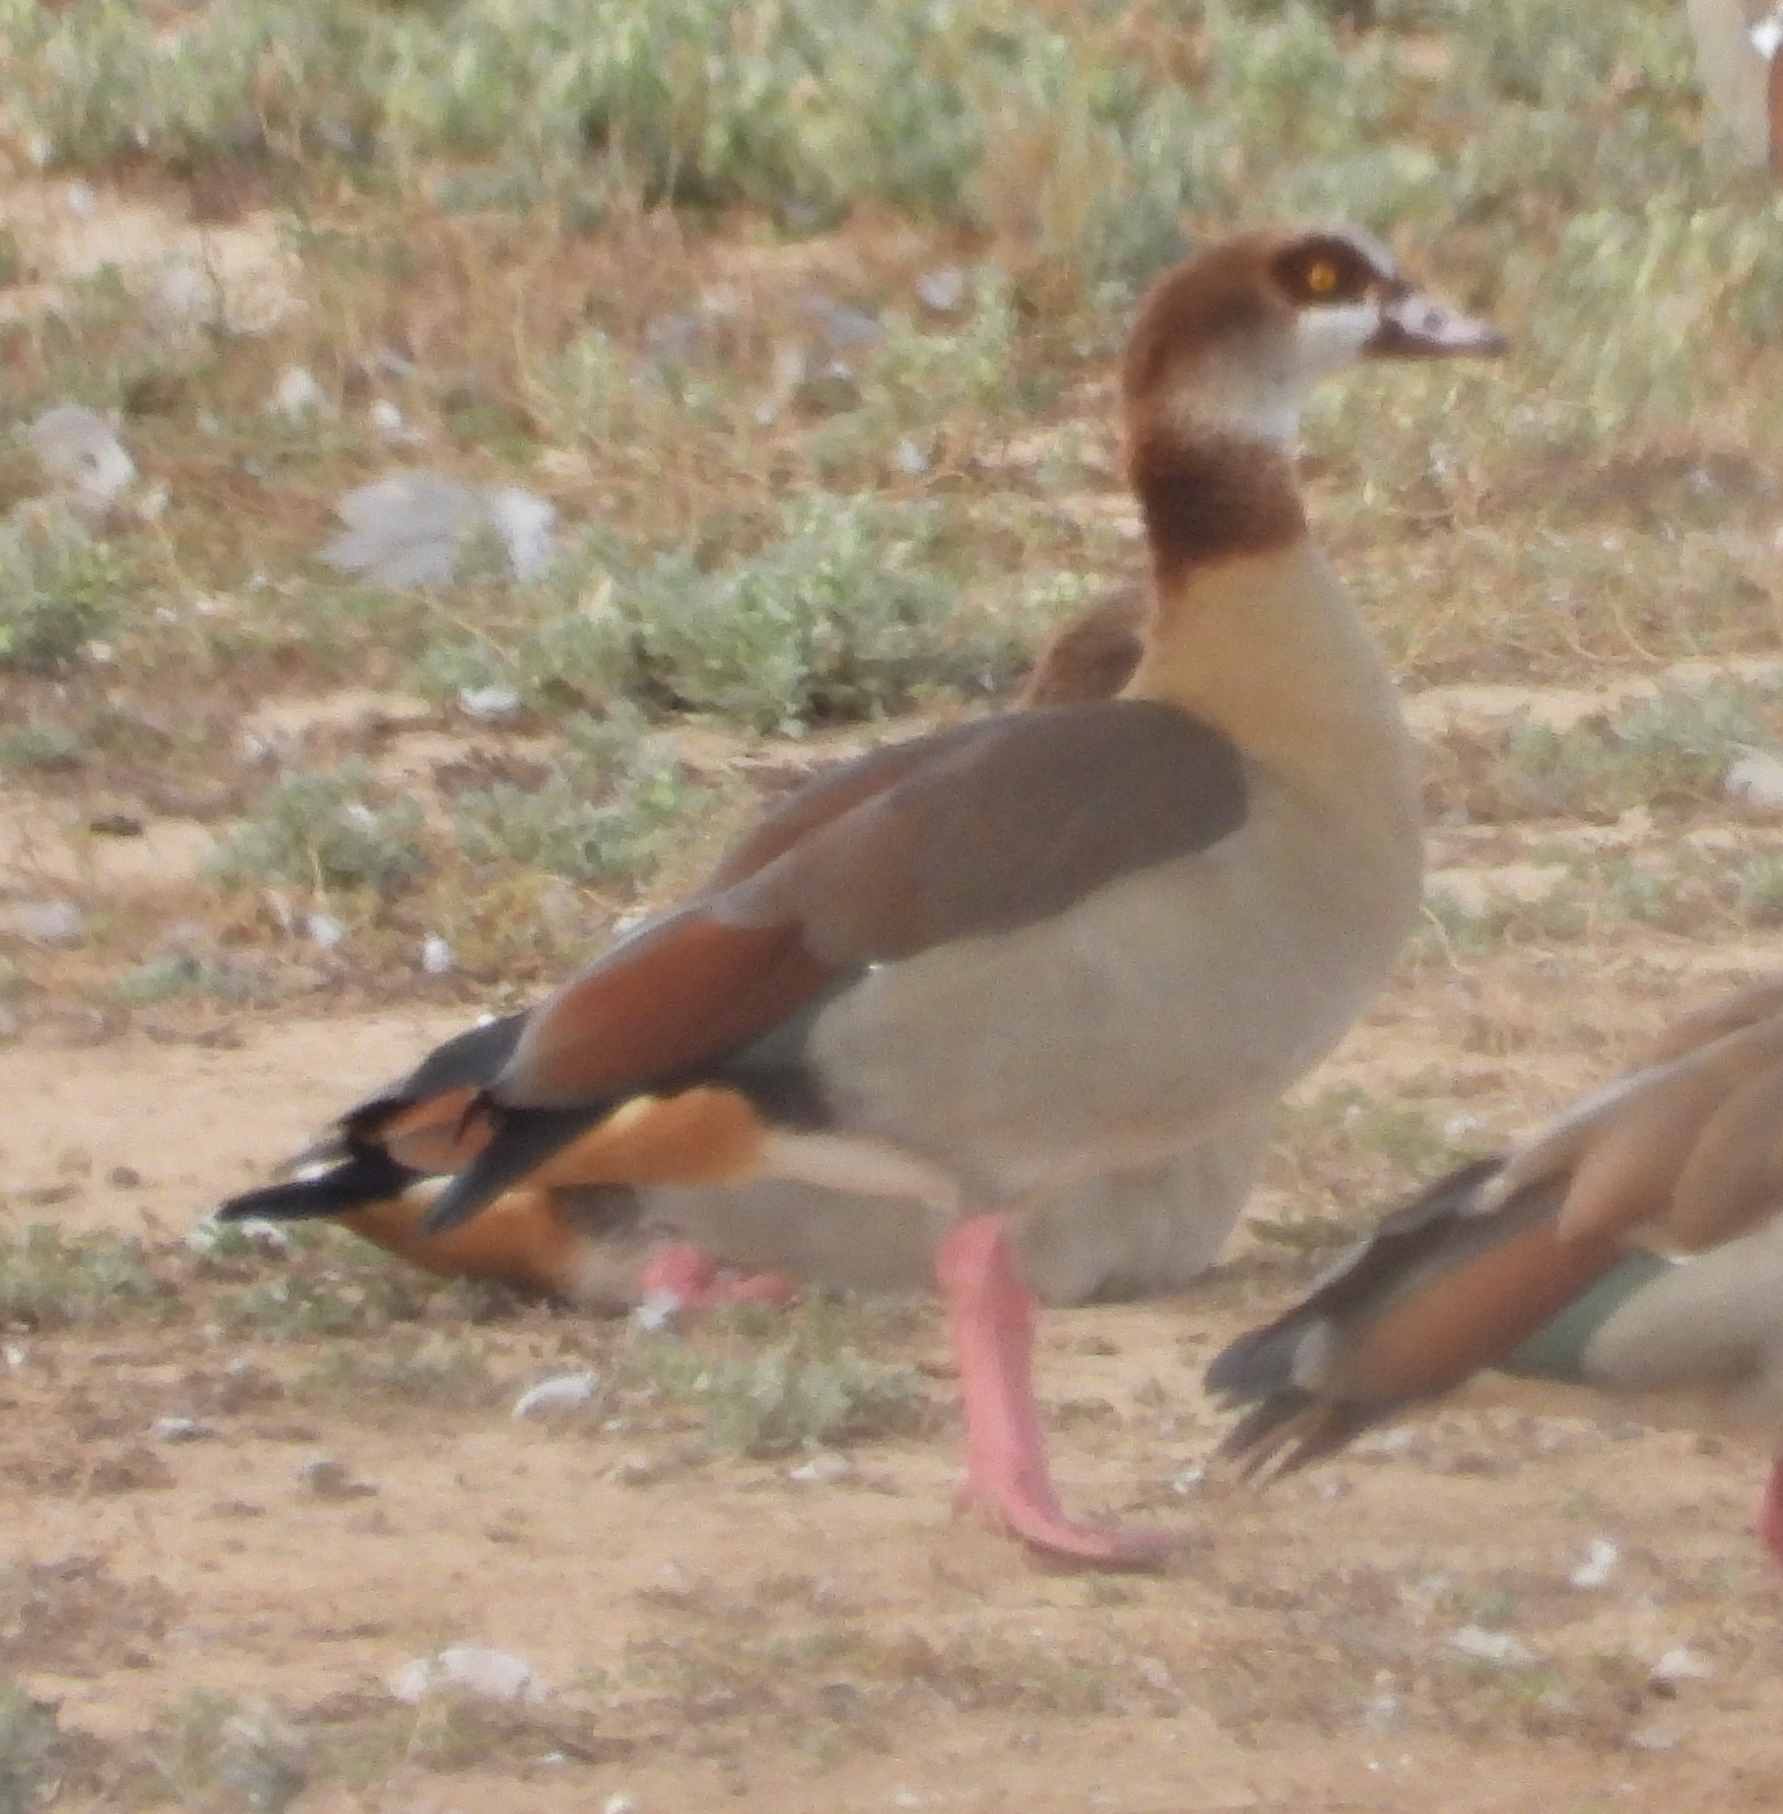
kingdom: Animalia
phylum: Chordata
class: Aves
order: Anseriformes
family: Anatidae
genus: Alopochen
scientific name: Alopochen aegyptiaca
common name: Egyptian goose
